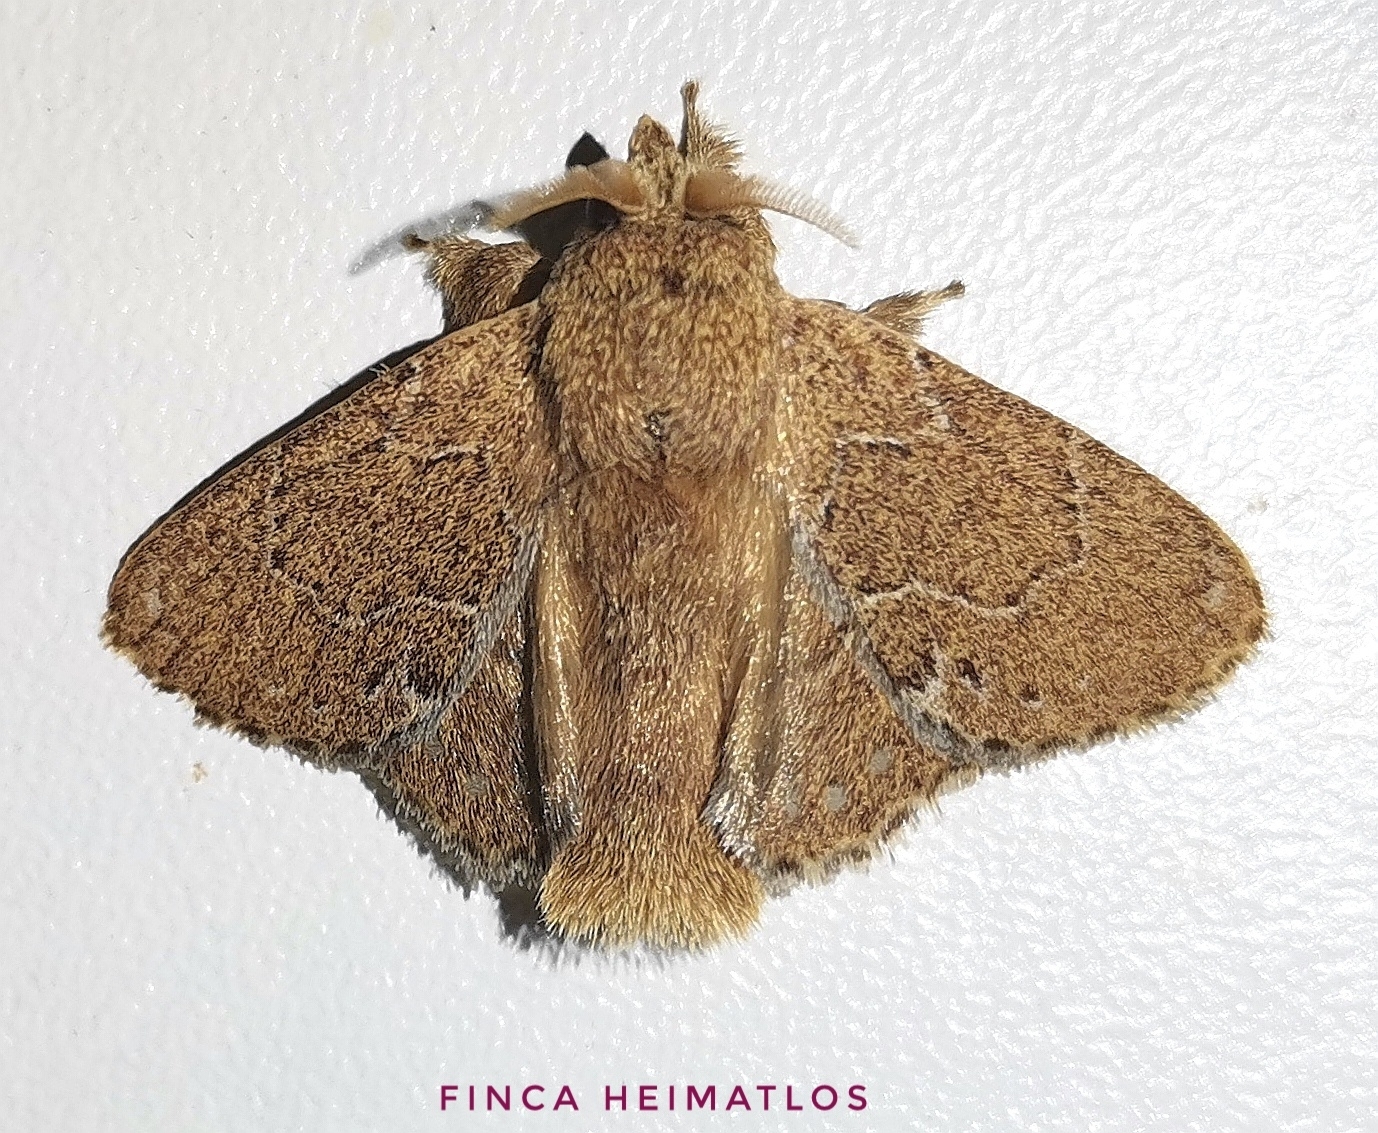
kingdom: Animalia
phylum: Arthropoda
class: Insecta
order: Lepidoptera
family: Lasiocampidae
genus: Euglyphis
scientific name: Euglyphis vitripuncta
